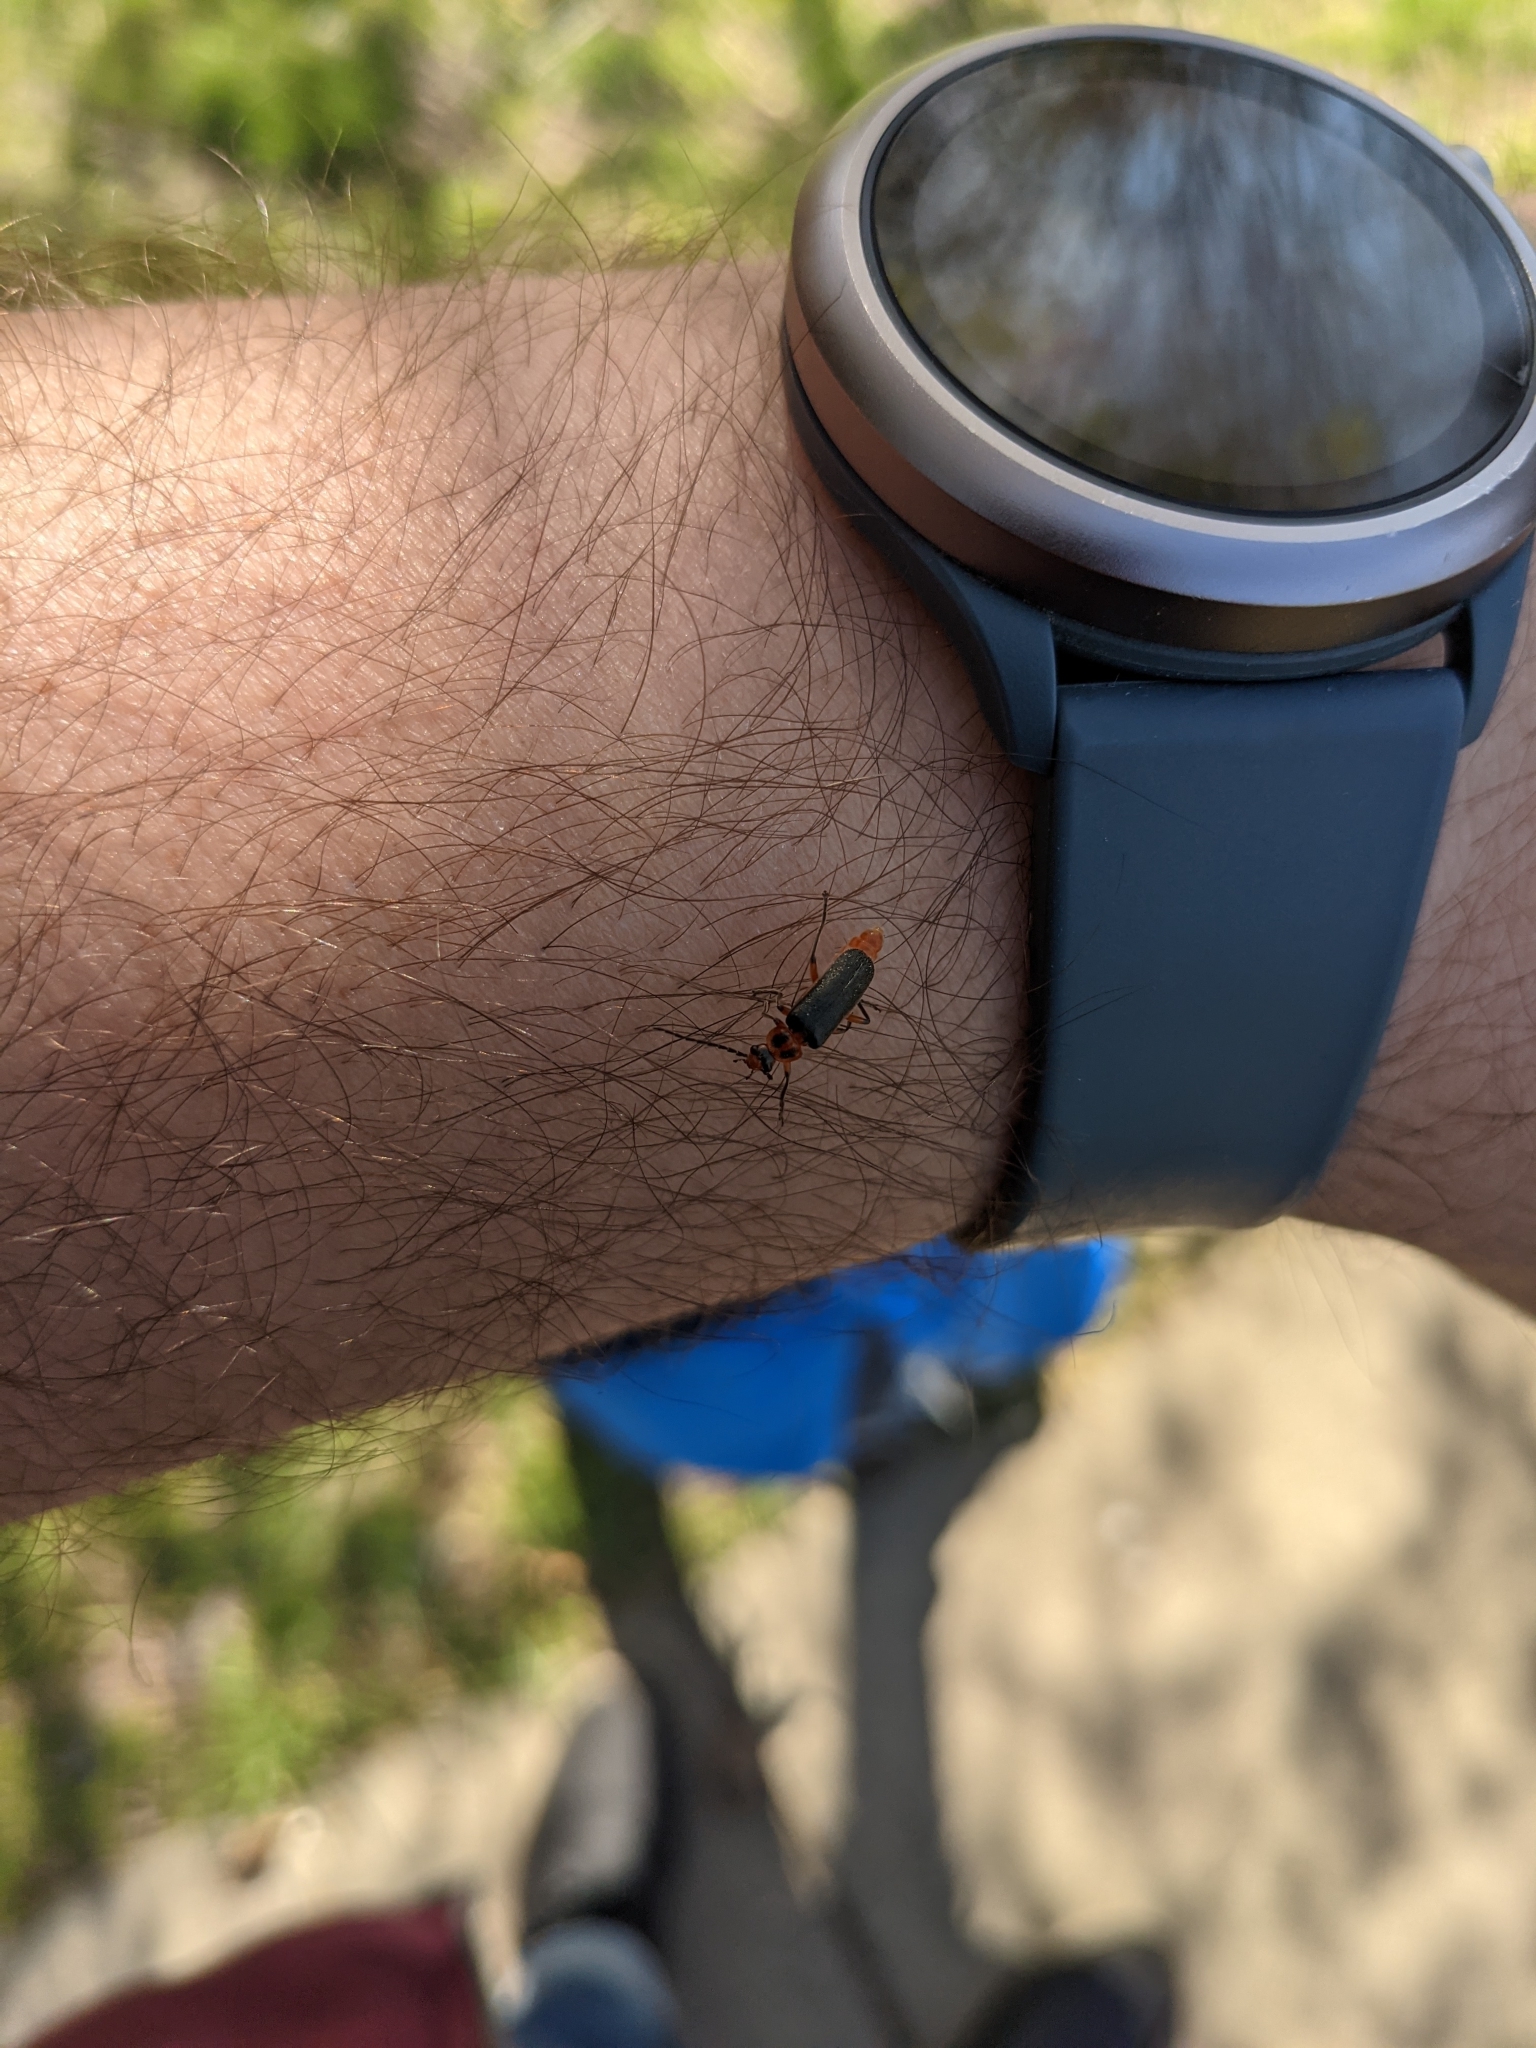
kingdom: Animalia
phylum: Arthropoda
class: Insecta
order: Coleoptera
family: Cantharidae
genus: Atalantycha
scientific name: Atalantycha bilineata
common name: Two-lined leatherwing
